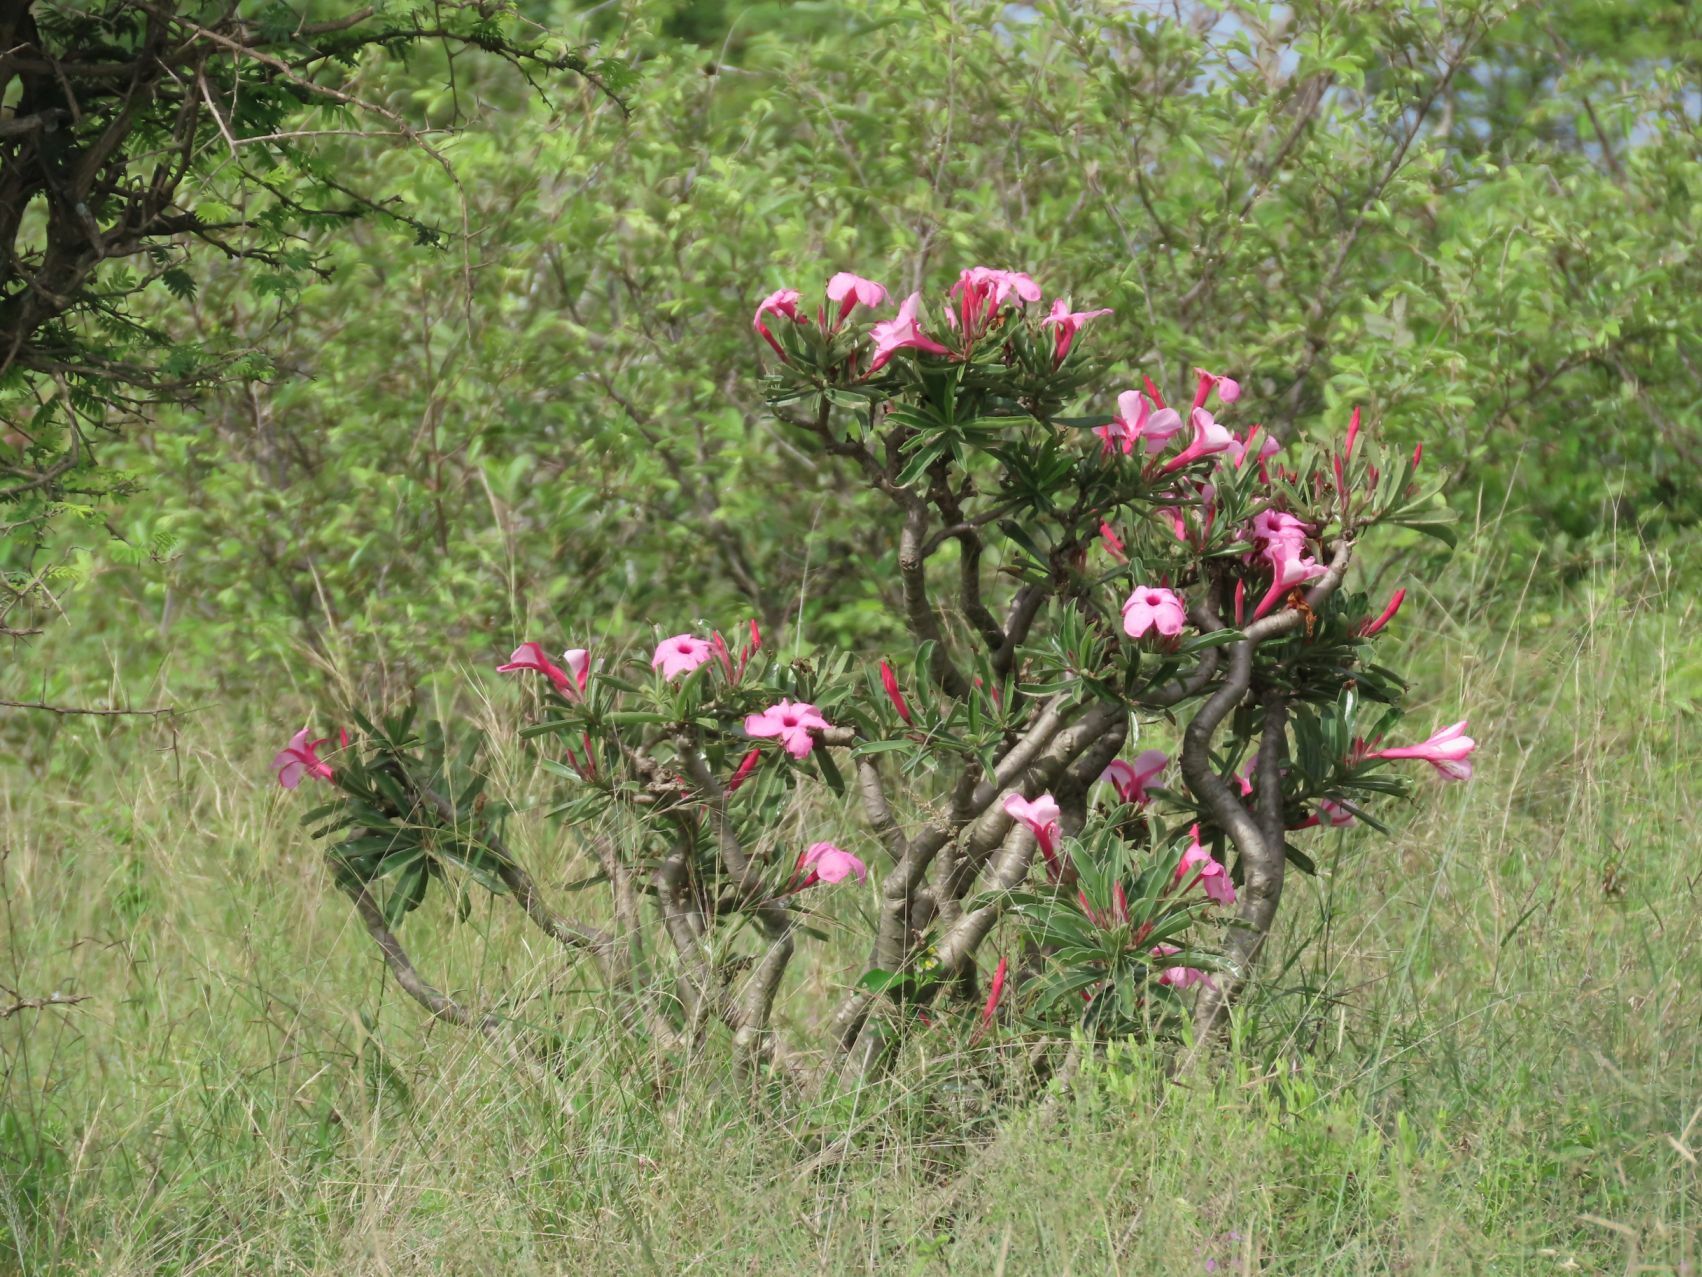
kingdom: Plantae
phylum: Tracheophyta
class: Magnoliopsida
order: Gentianales
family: Apocynaceae
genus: Adenium
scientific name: Adenium obesum
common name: Desert-rose
